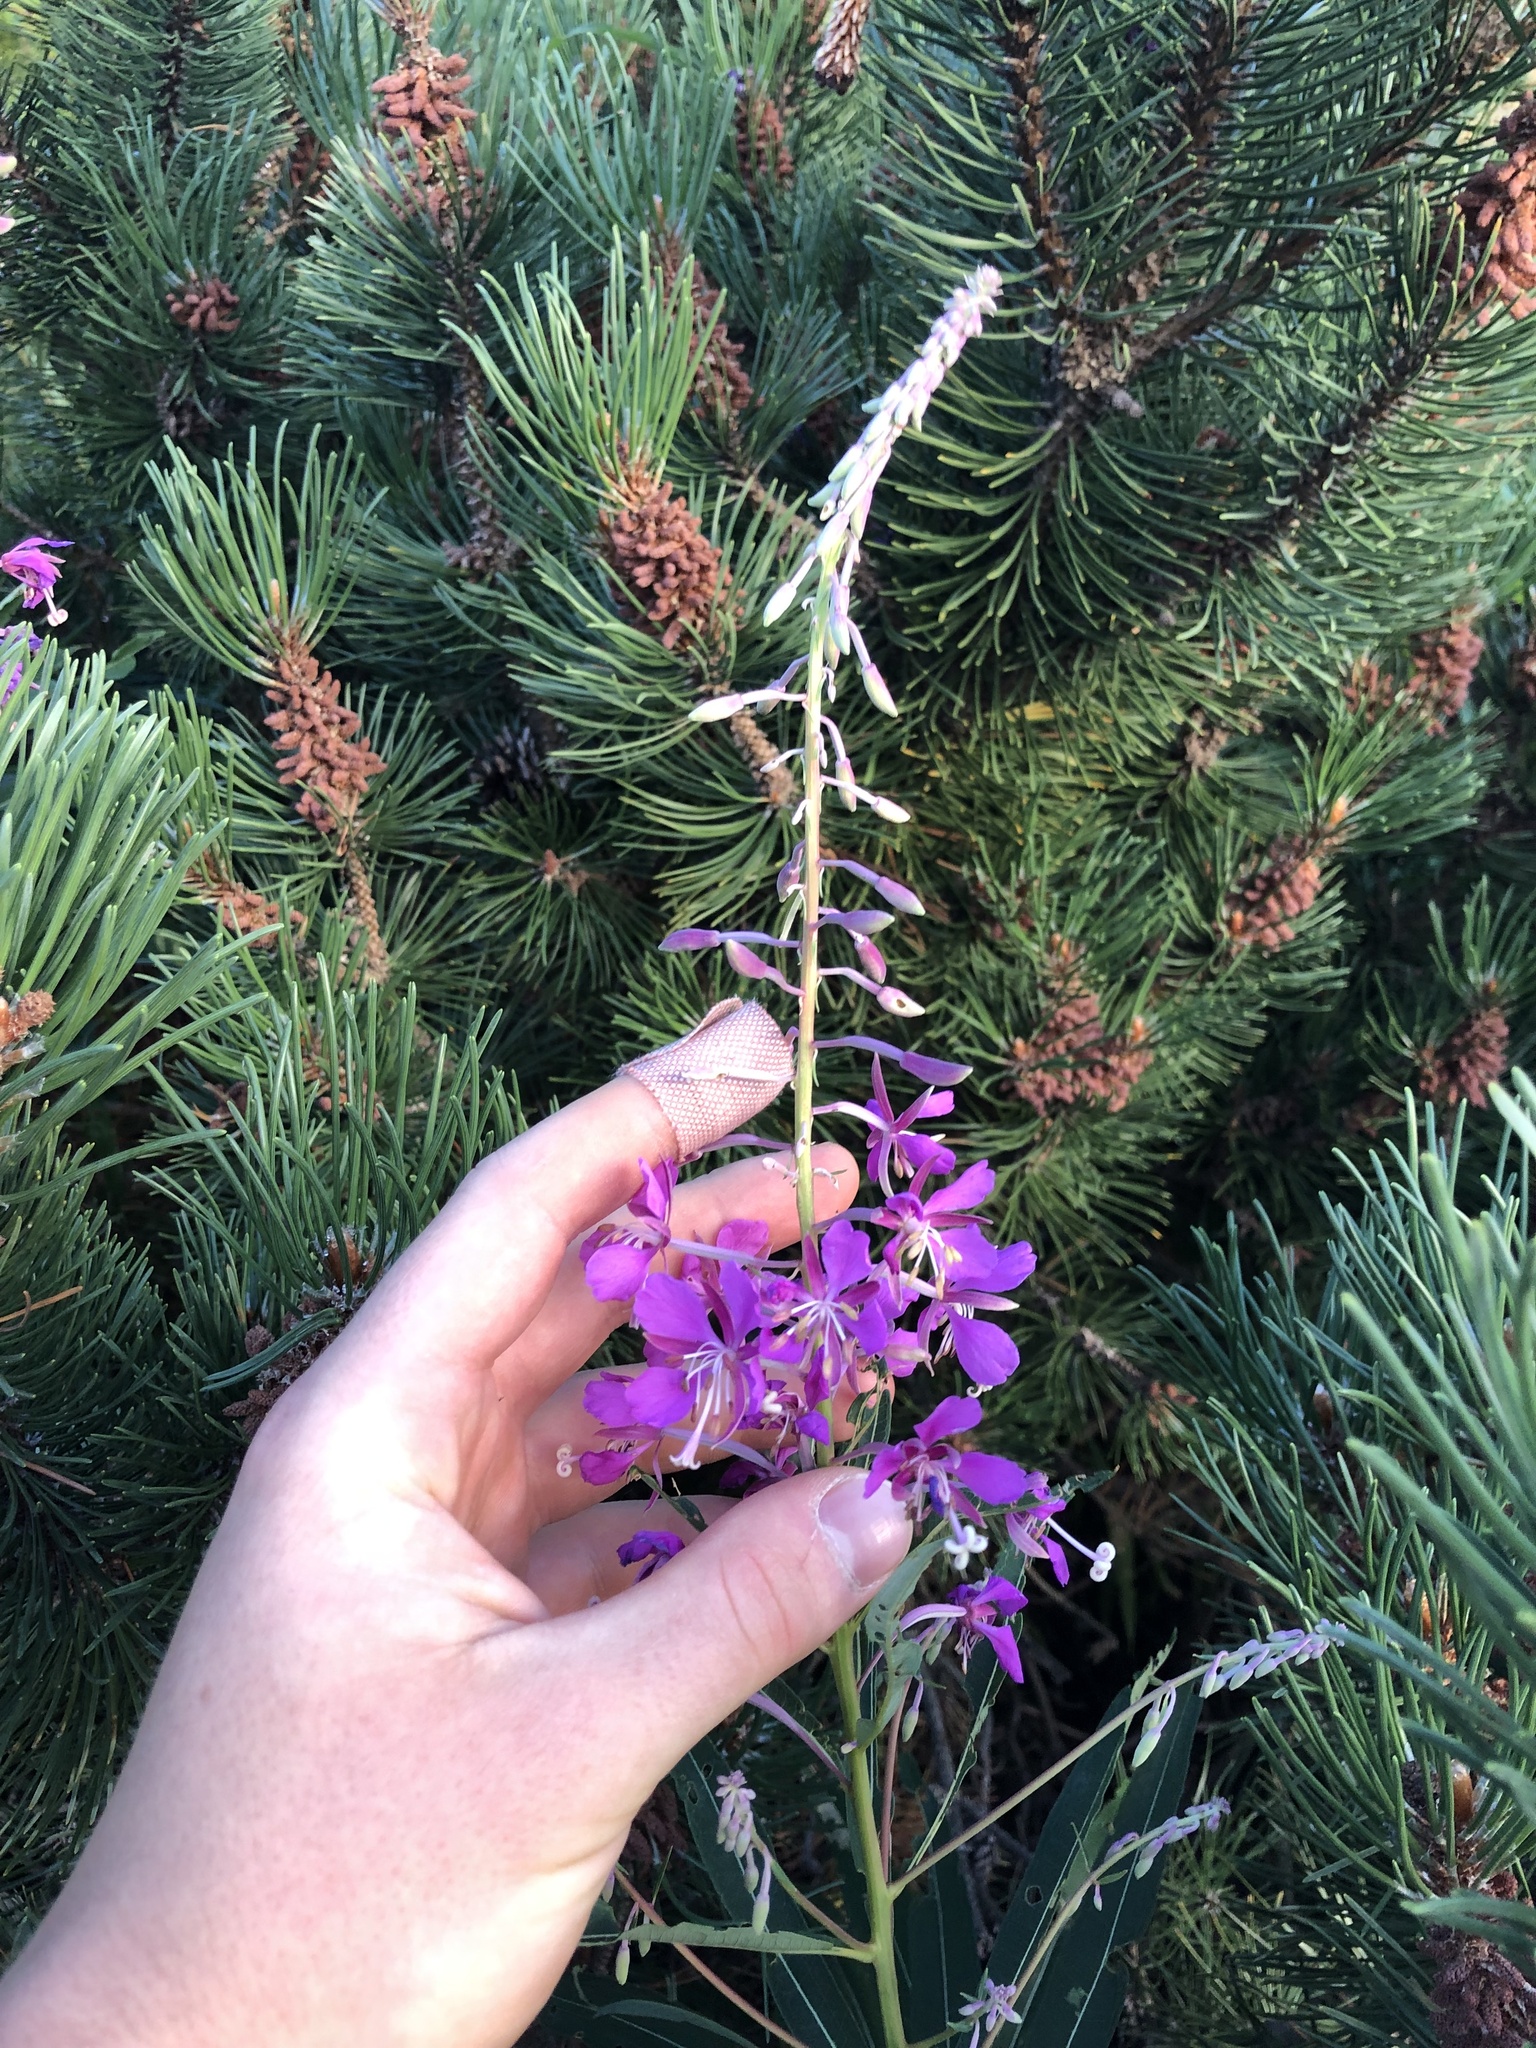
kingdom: Plantae
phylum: Tracheophyta
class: Magnoliopsida
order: Myrtales
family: Onagraceae
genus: Chamaenerion
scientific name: Chamaenerion angustifolium
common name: Fireweed
